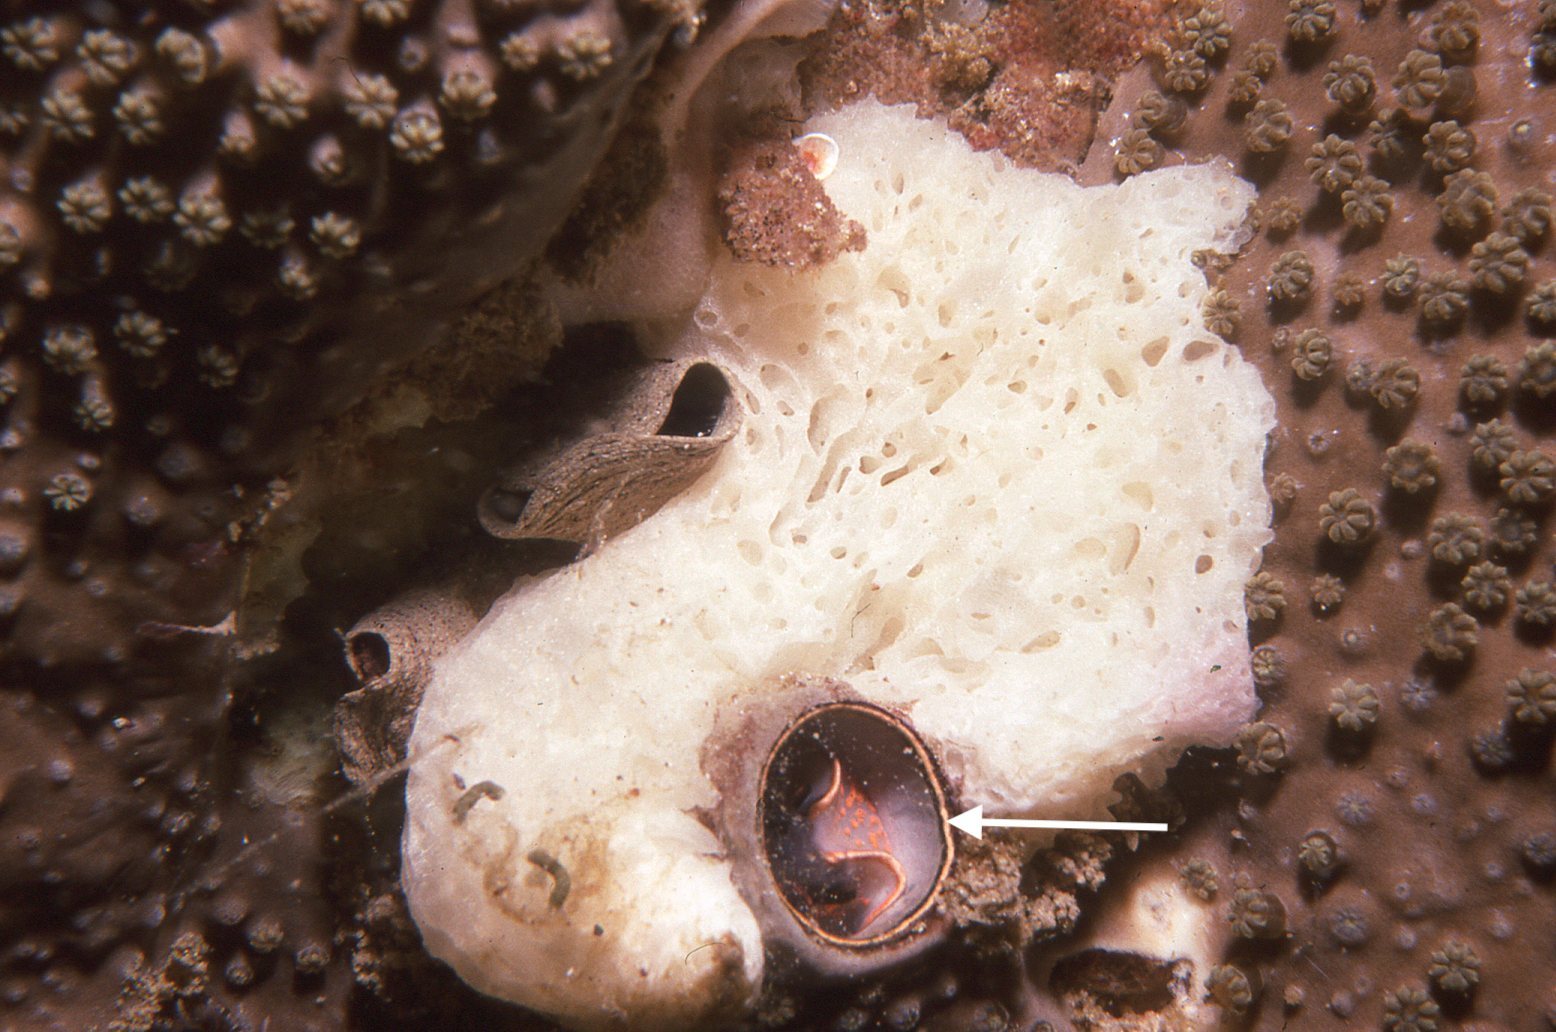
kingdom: Animalia
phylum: Mollusca
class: Gastropoda
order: Littorinimorpha
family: Vermetidae
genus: Thylacodes
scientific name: Thylacodes sipho
